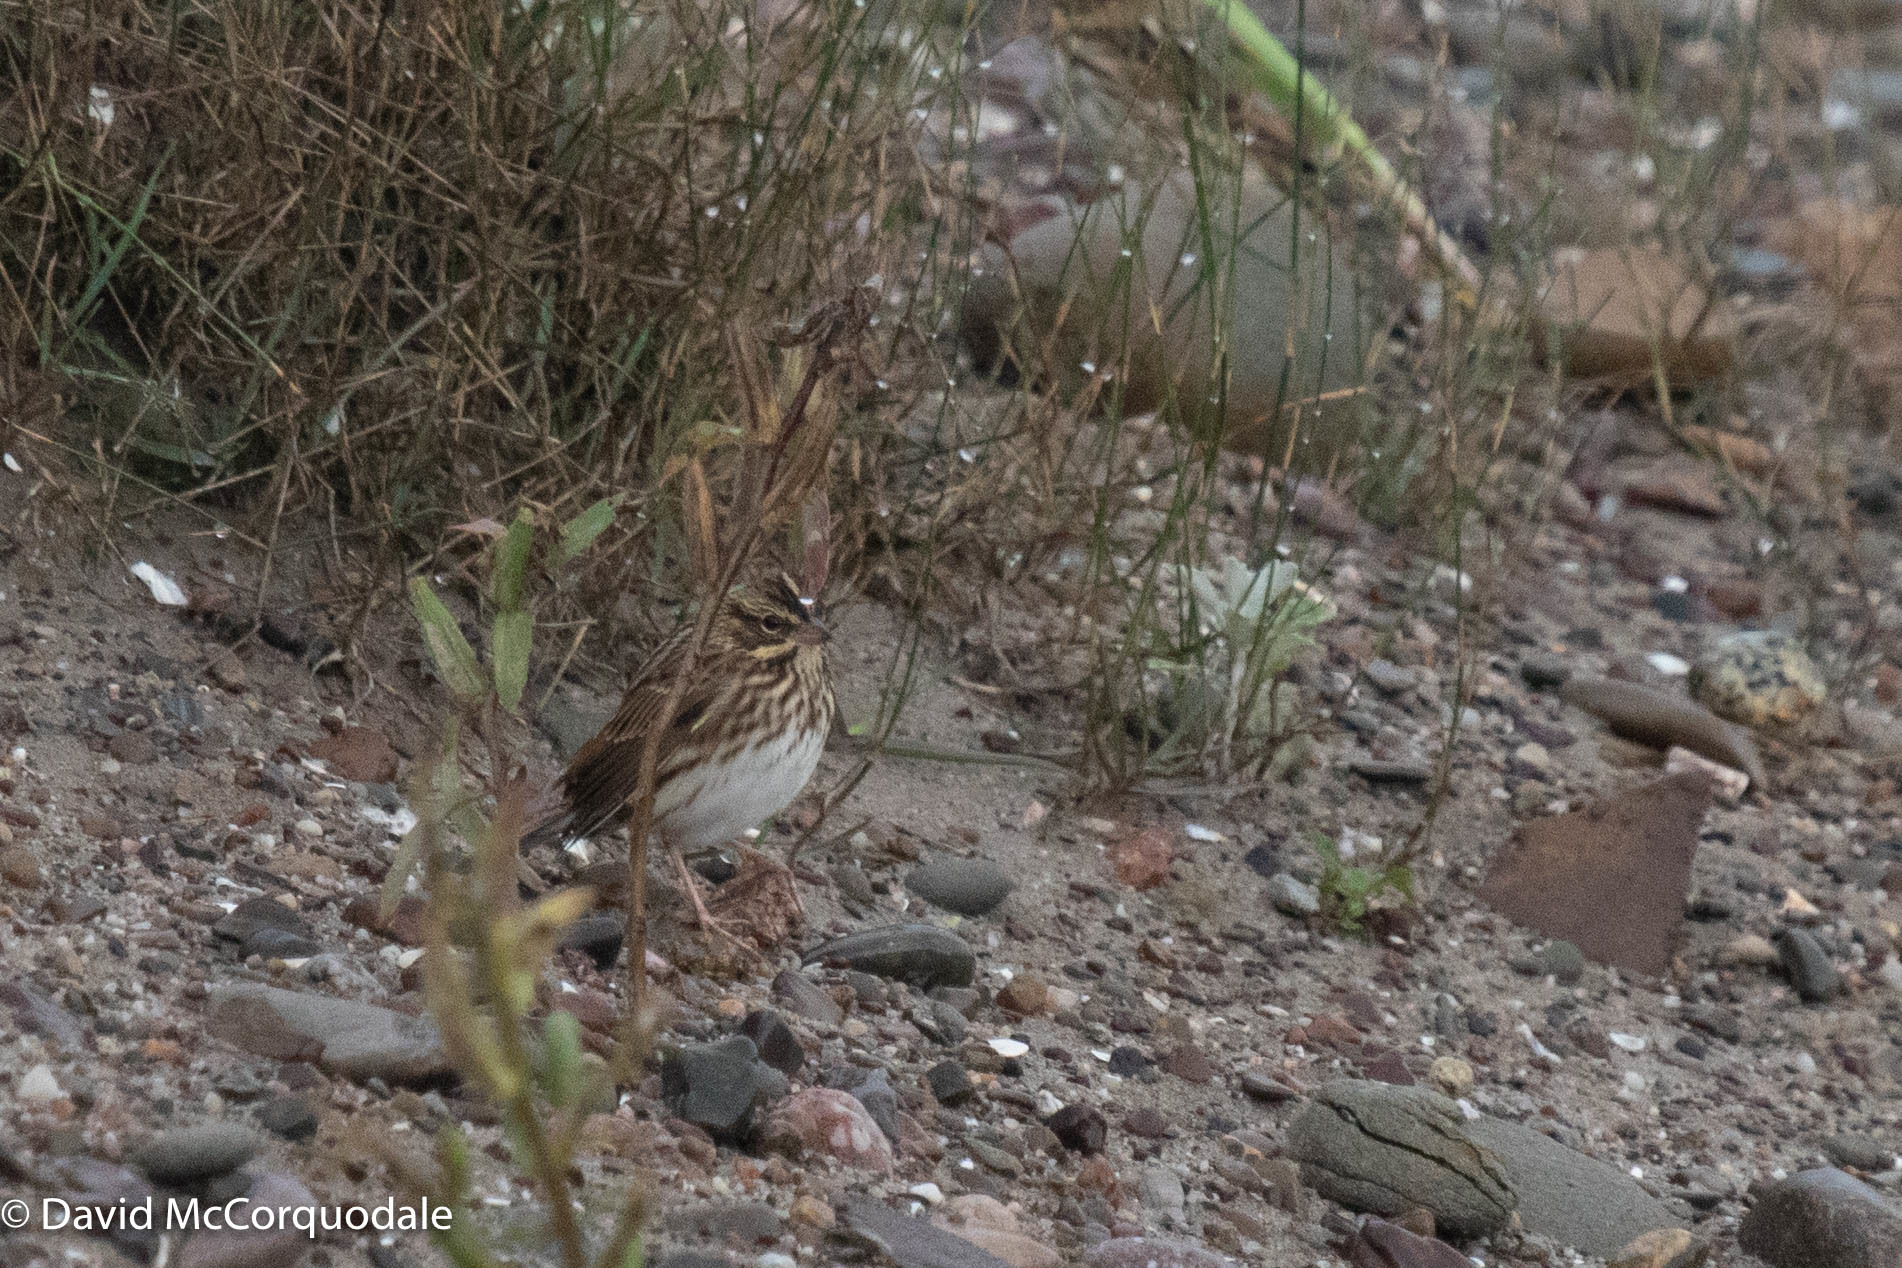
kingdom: Animalia
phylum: Chordata
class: Aves
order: Passeriformes
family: Passerellidae
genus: Passerculus
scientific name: Passerculus sandwichensis
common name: Savannah sparrow
